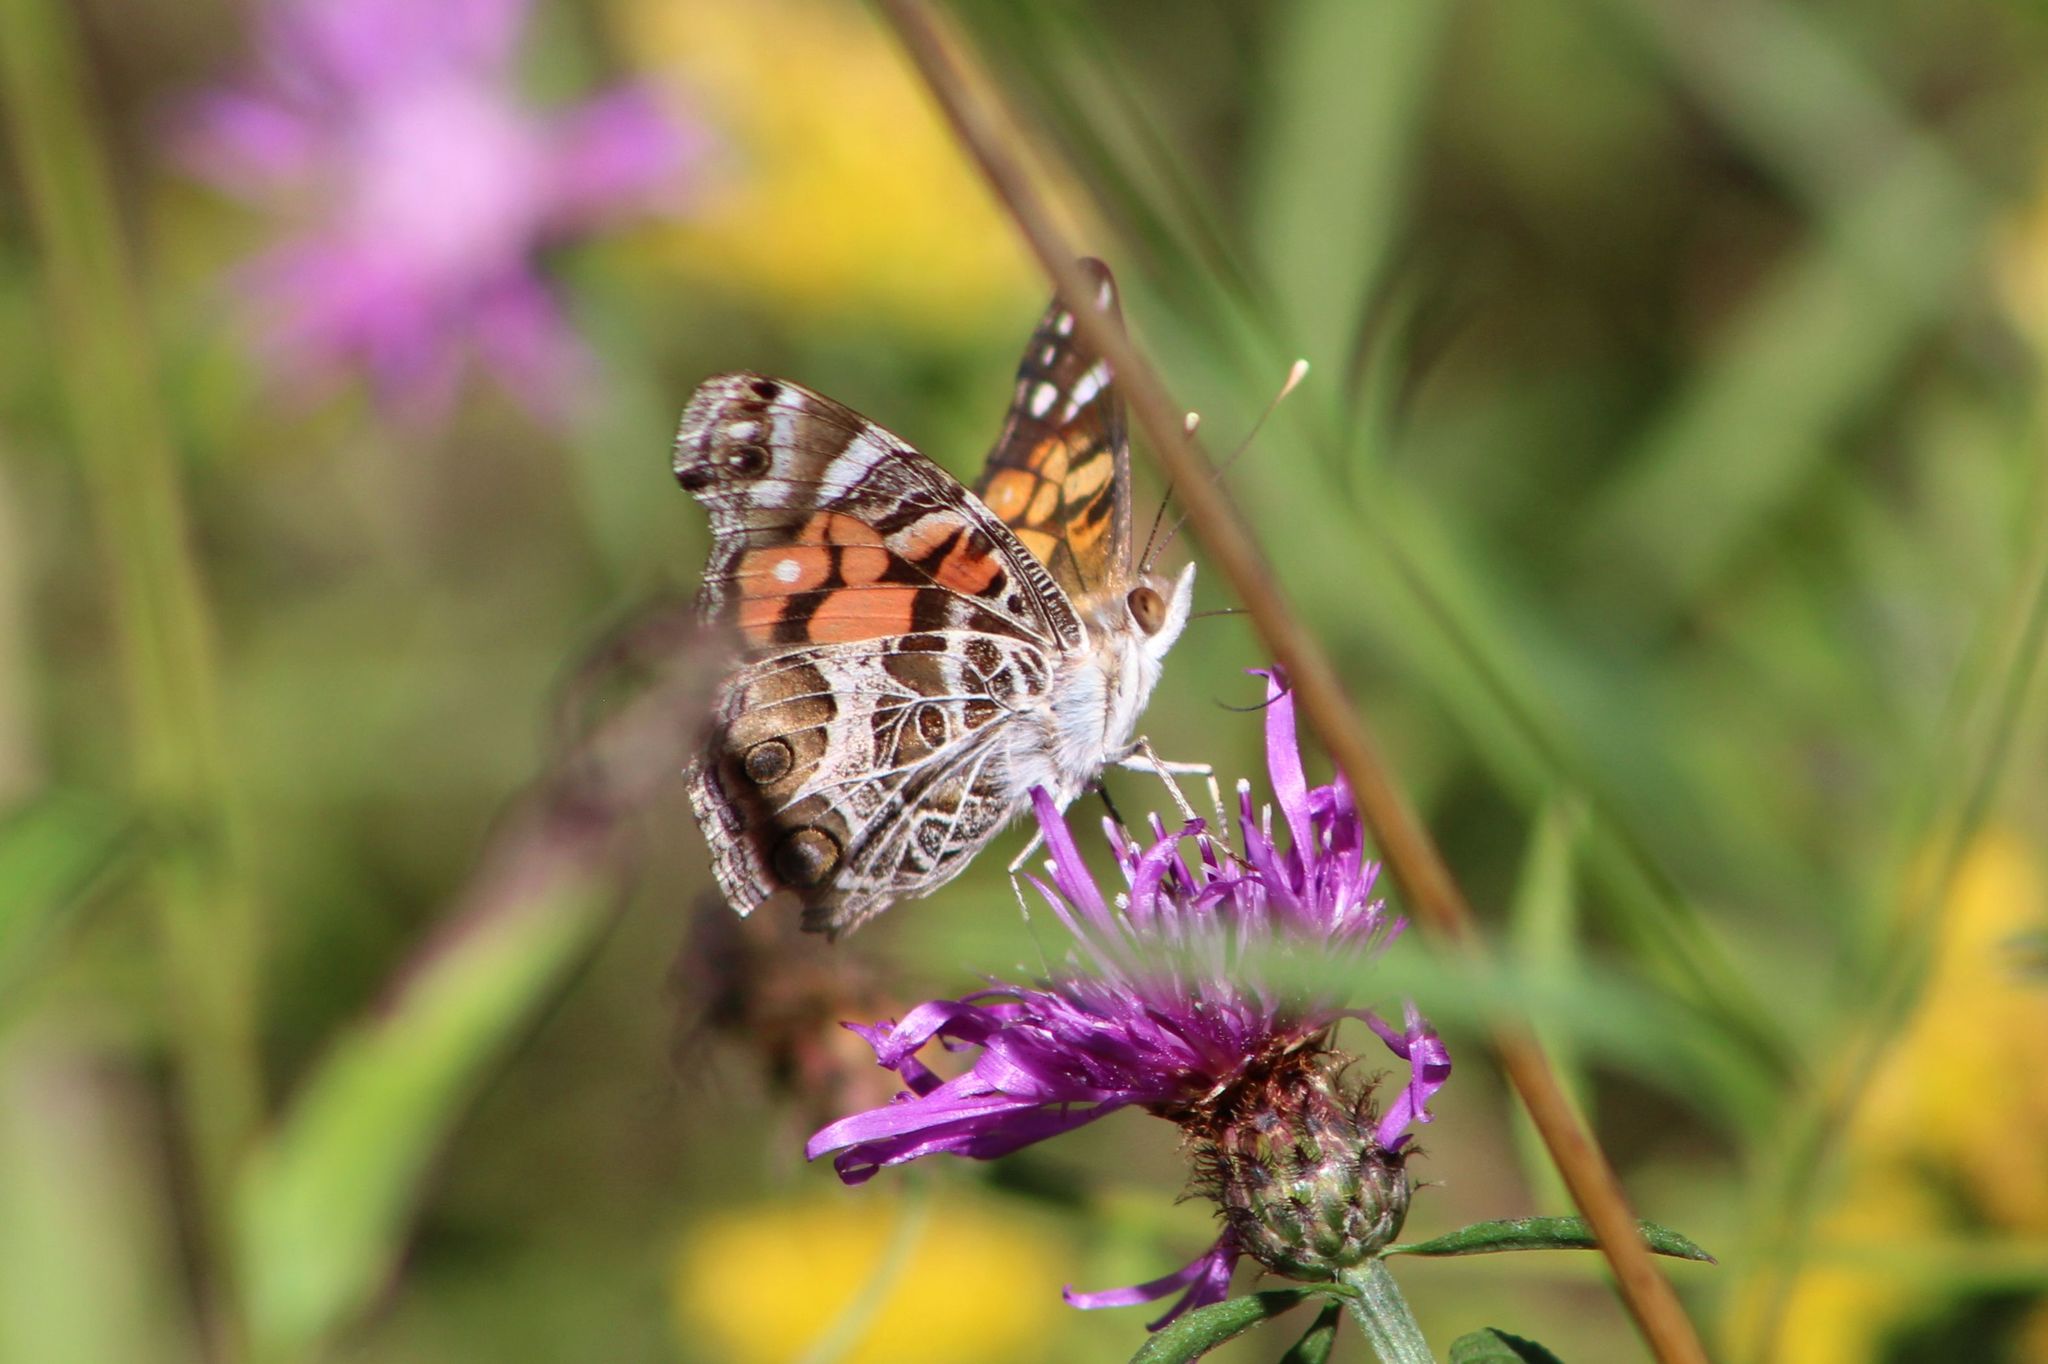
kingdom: Animalia
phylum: Arthropoda
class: Insecta
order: Lepidoptera
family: Nymphalidae
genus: Vanessa
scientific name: Vanessa virginiensis
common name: American lady
